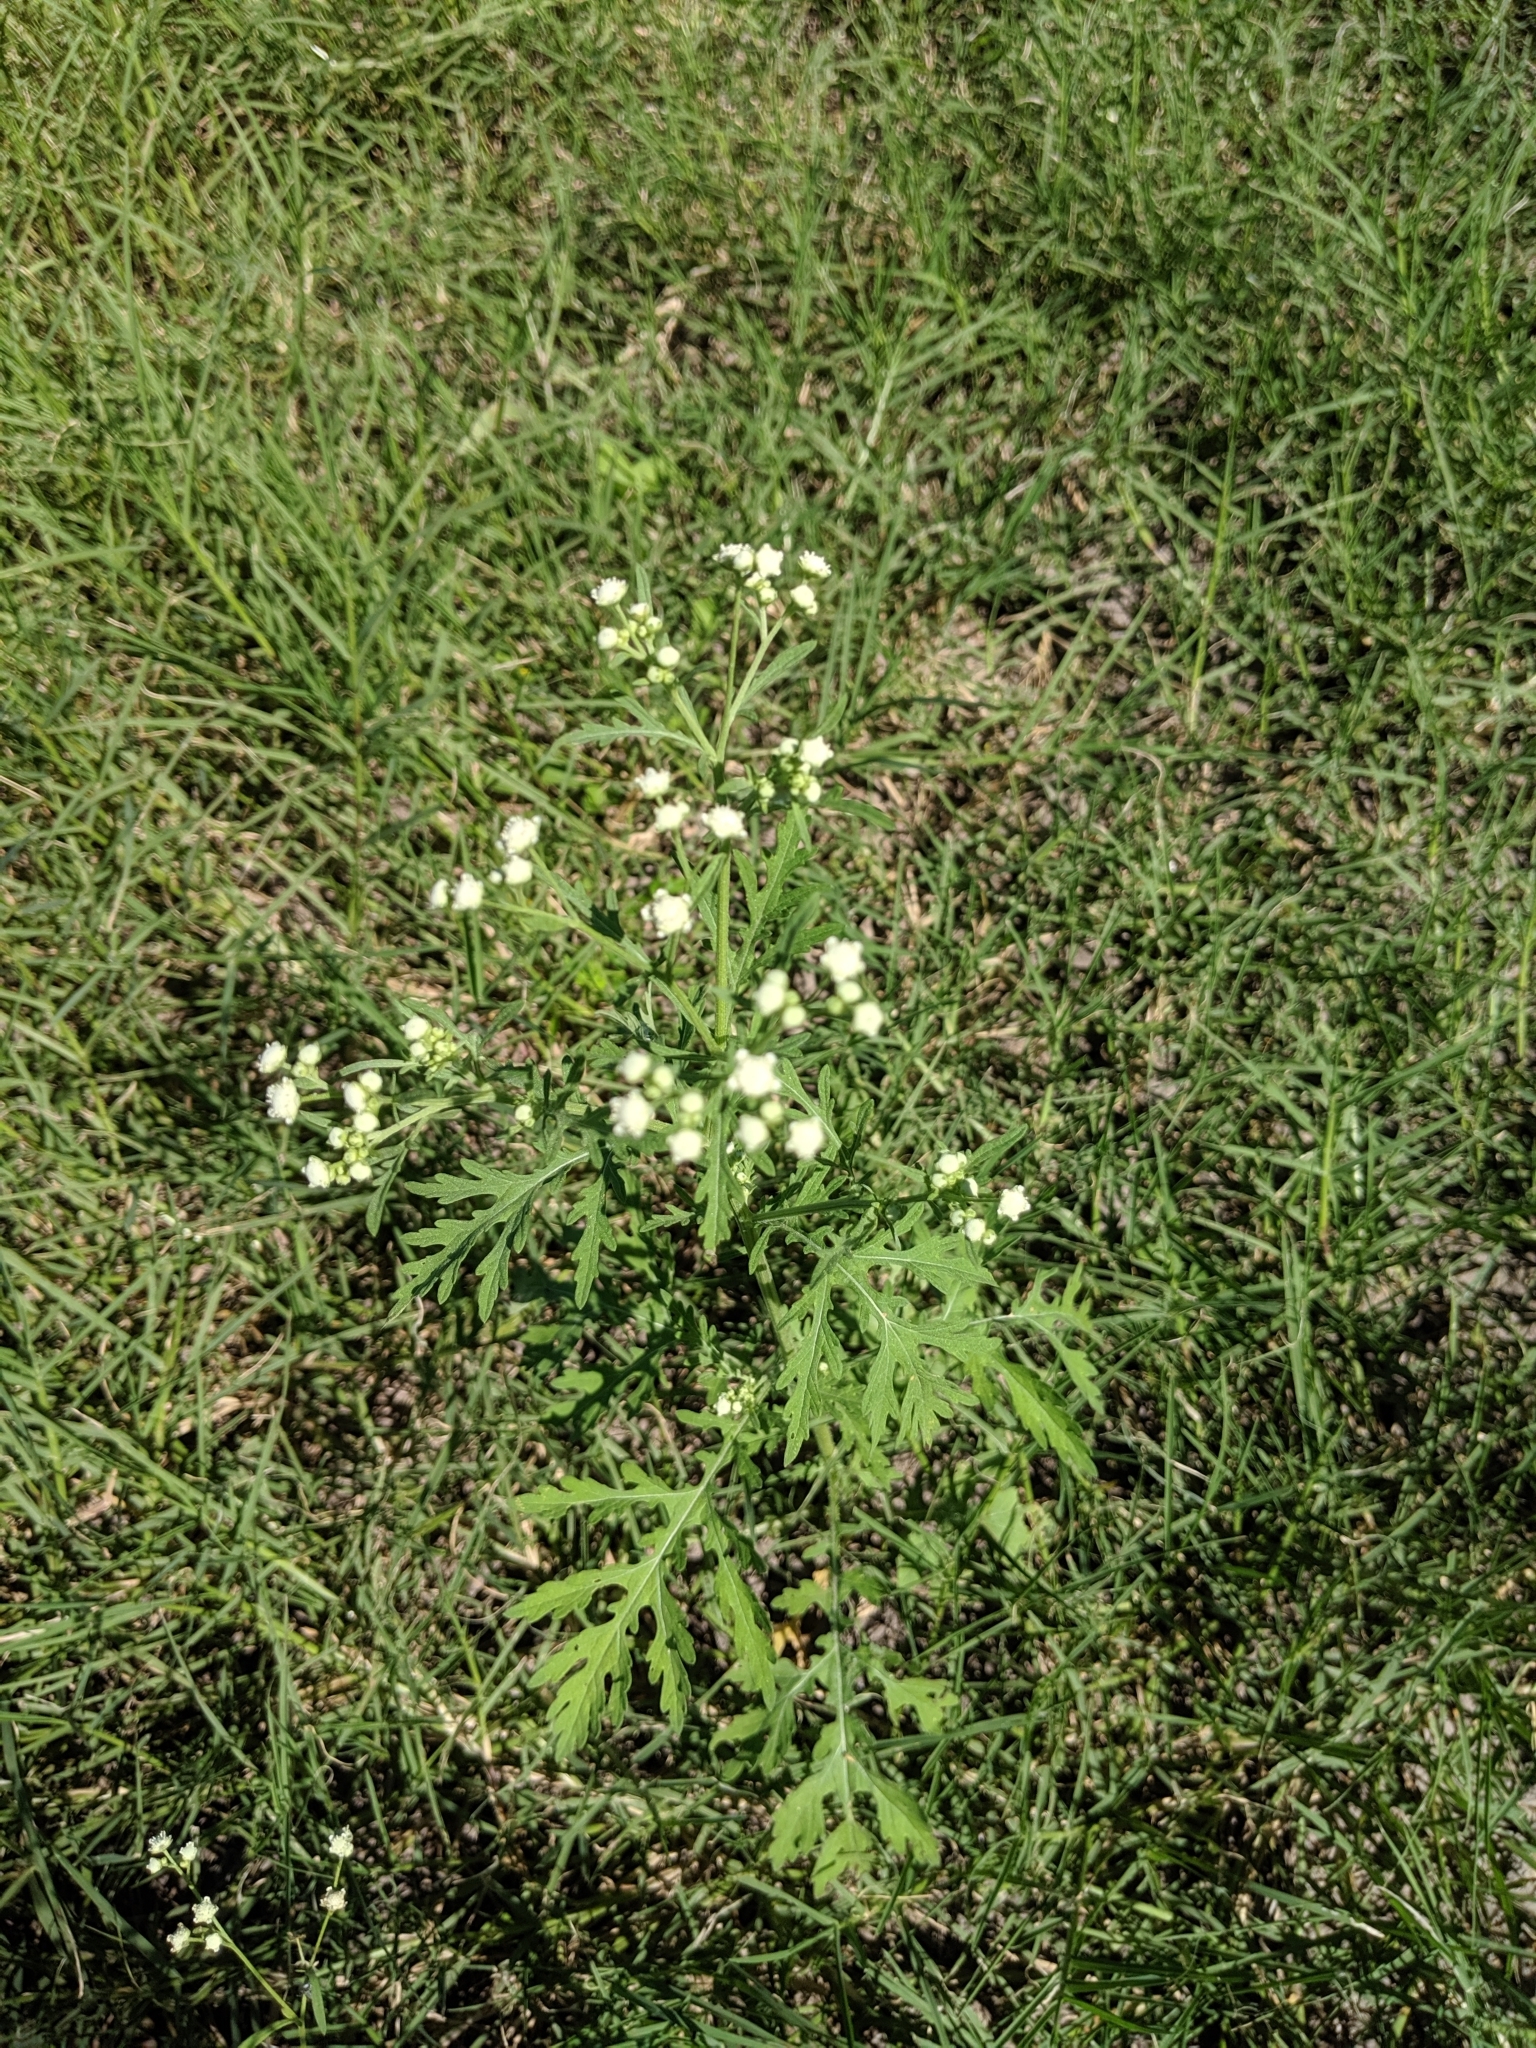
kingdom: Plantae
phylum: Tracheophyta
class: Magnoliopsida
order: Asterales
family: Asteraceae
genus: Parthenium
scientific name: Parthenium hysterophorus
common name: Santa maria feverfew
